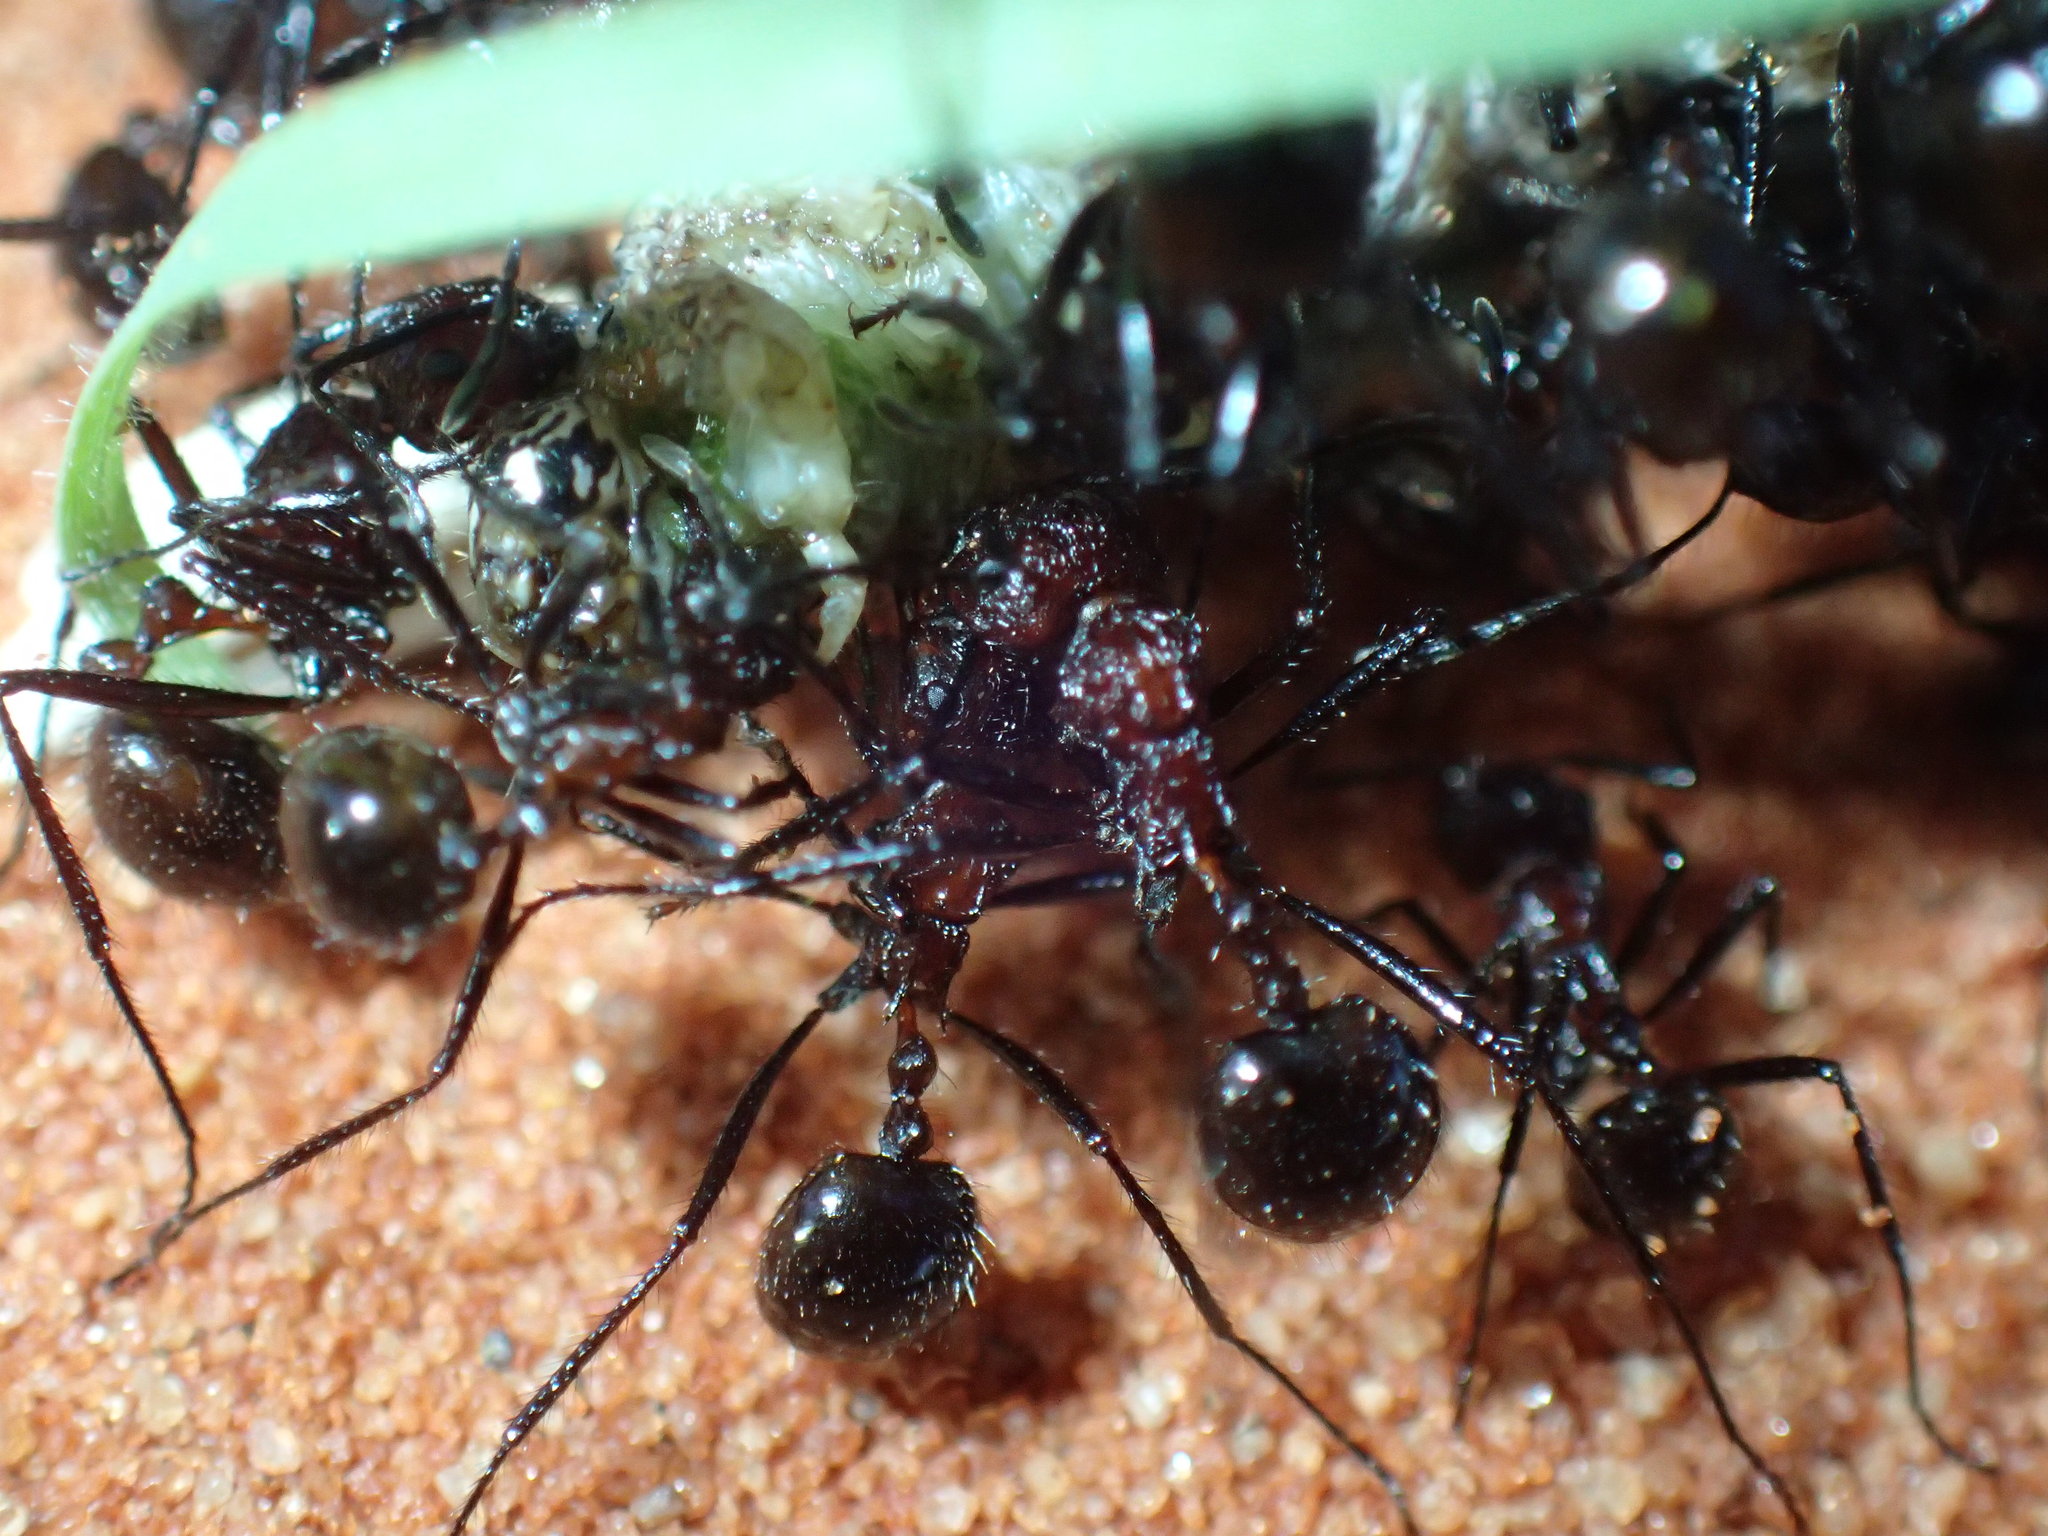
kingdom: Animalia
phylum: Arthropoda
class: Insecta
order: Hymenoptera
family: Formicidae
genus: Myrmicaria
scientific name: Myrmicaria natalensis
